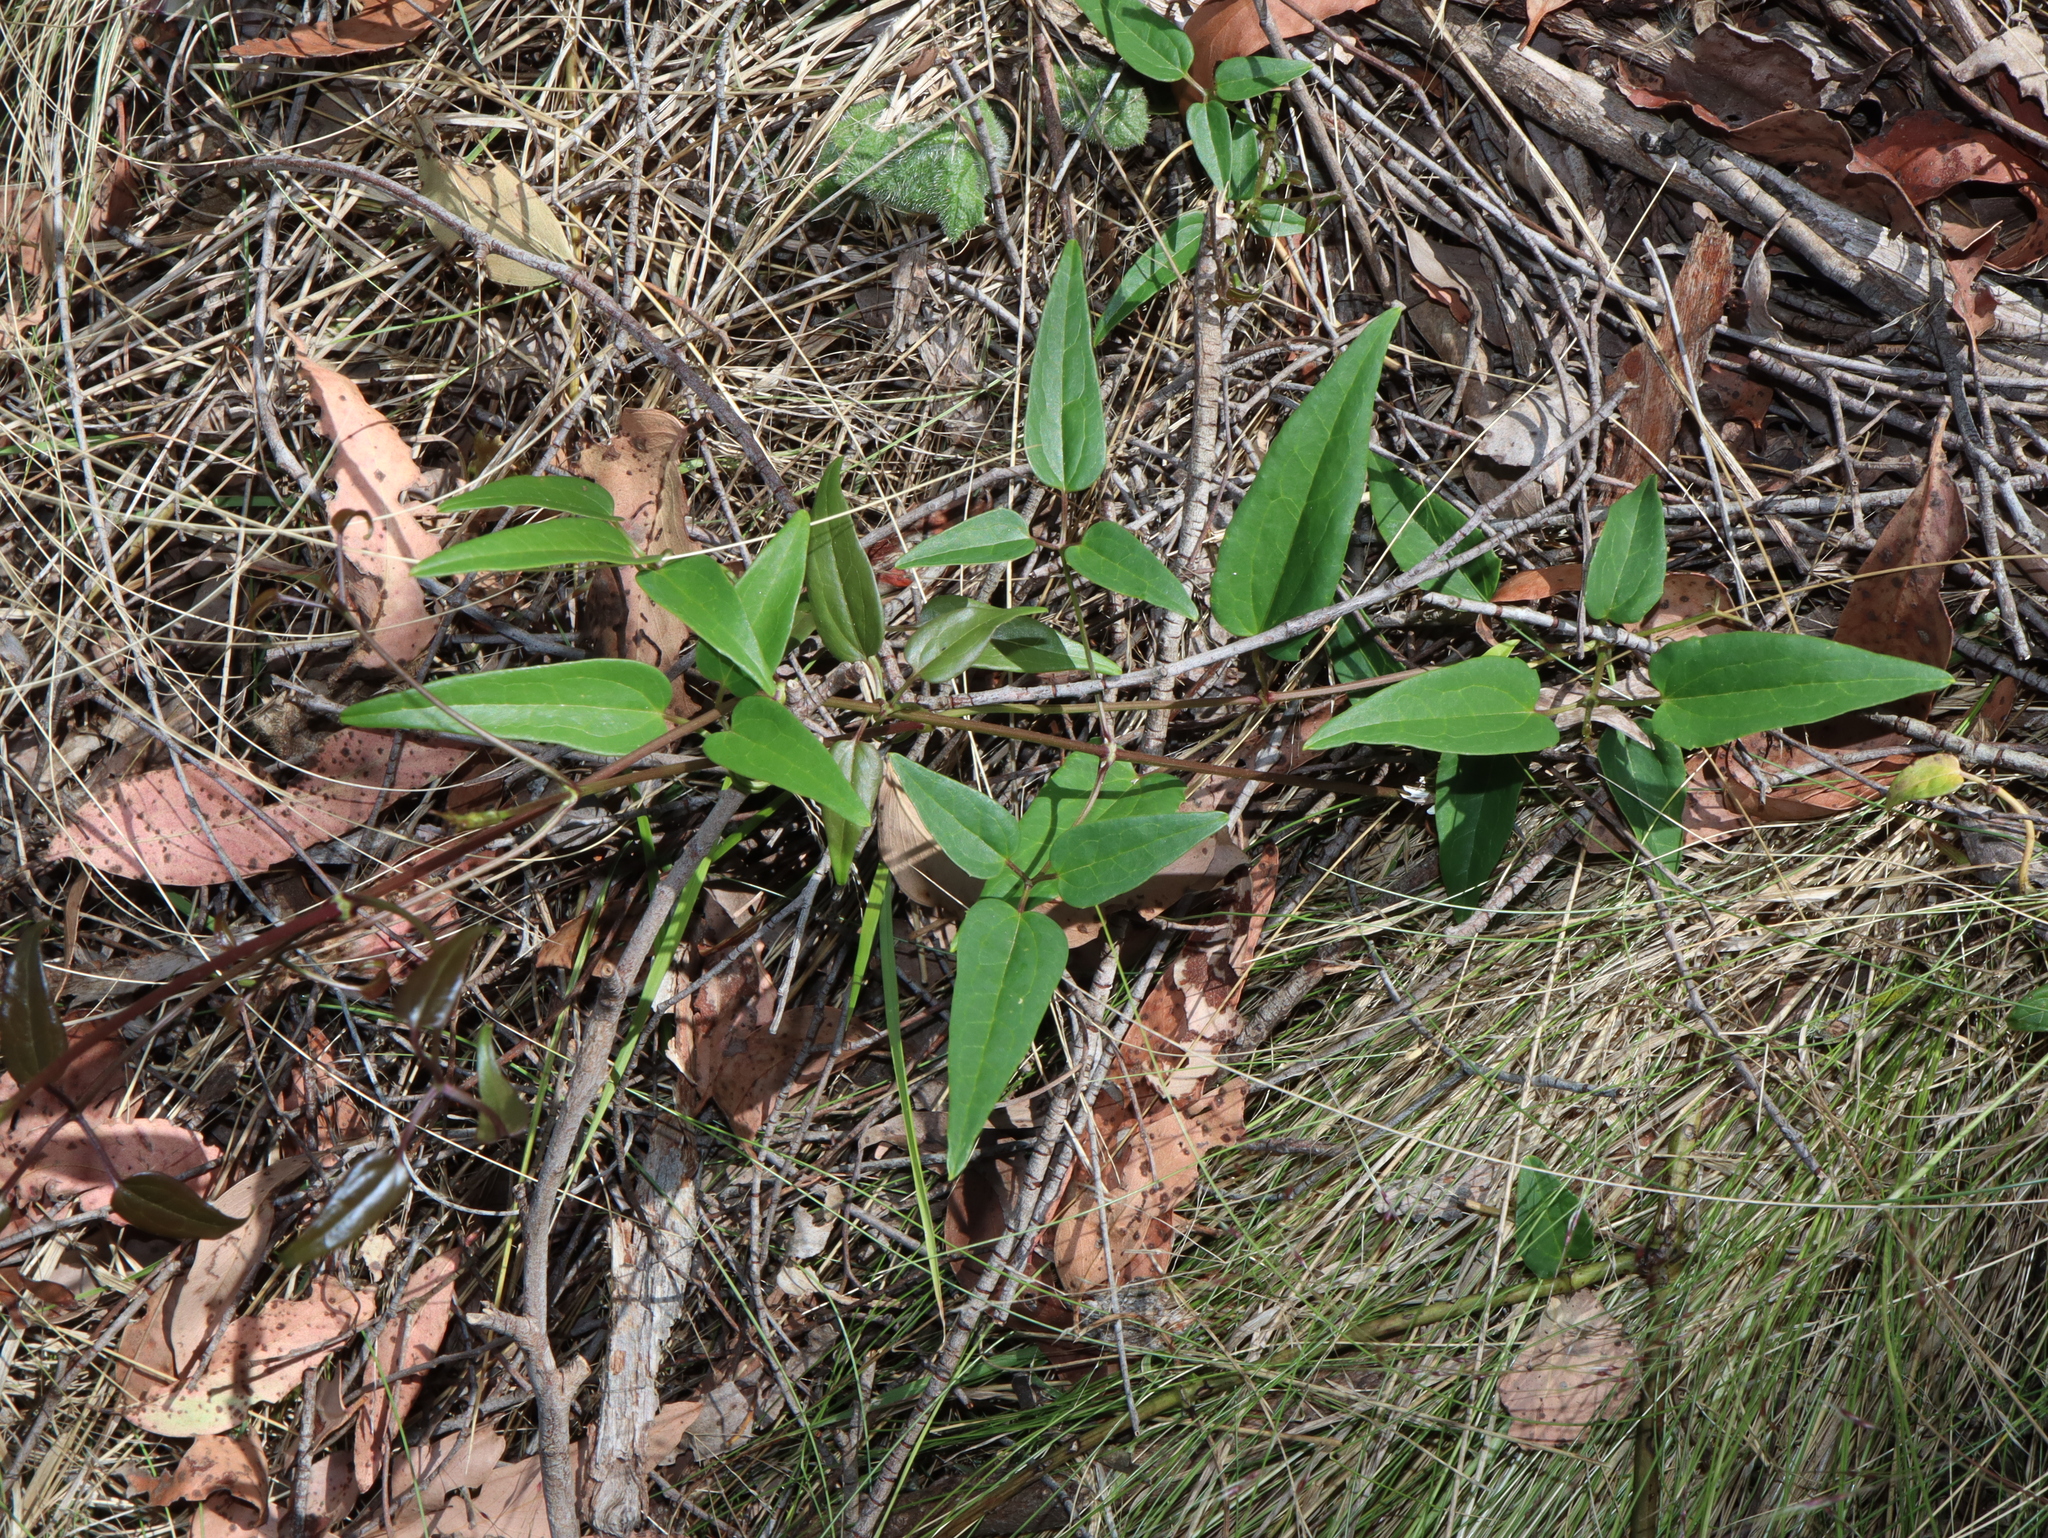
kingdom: Plantae
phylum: Tracheophyta
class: Magnoliopsida
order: Ranunculales
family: Ranunculaceae
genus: Clematis
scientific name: Clematis glycinoides
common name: Forest clematis
